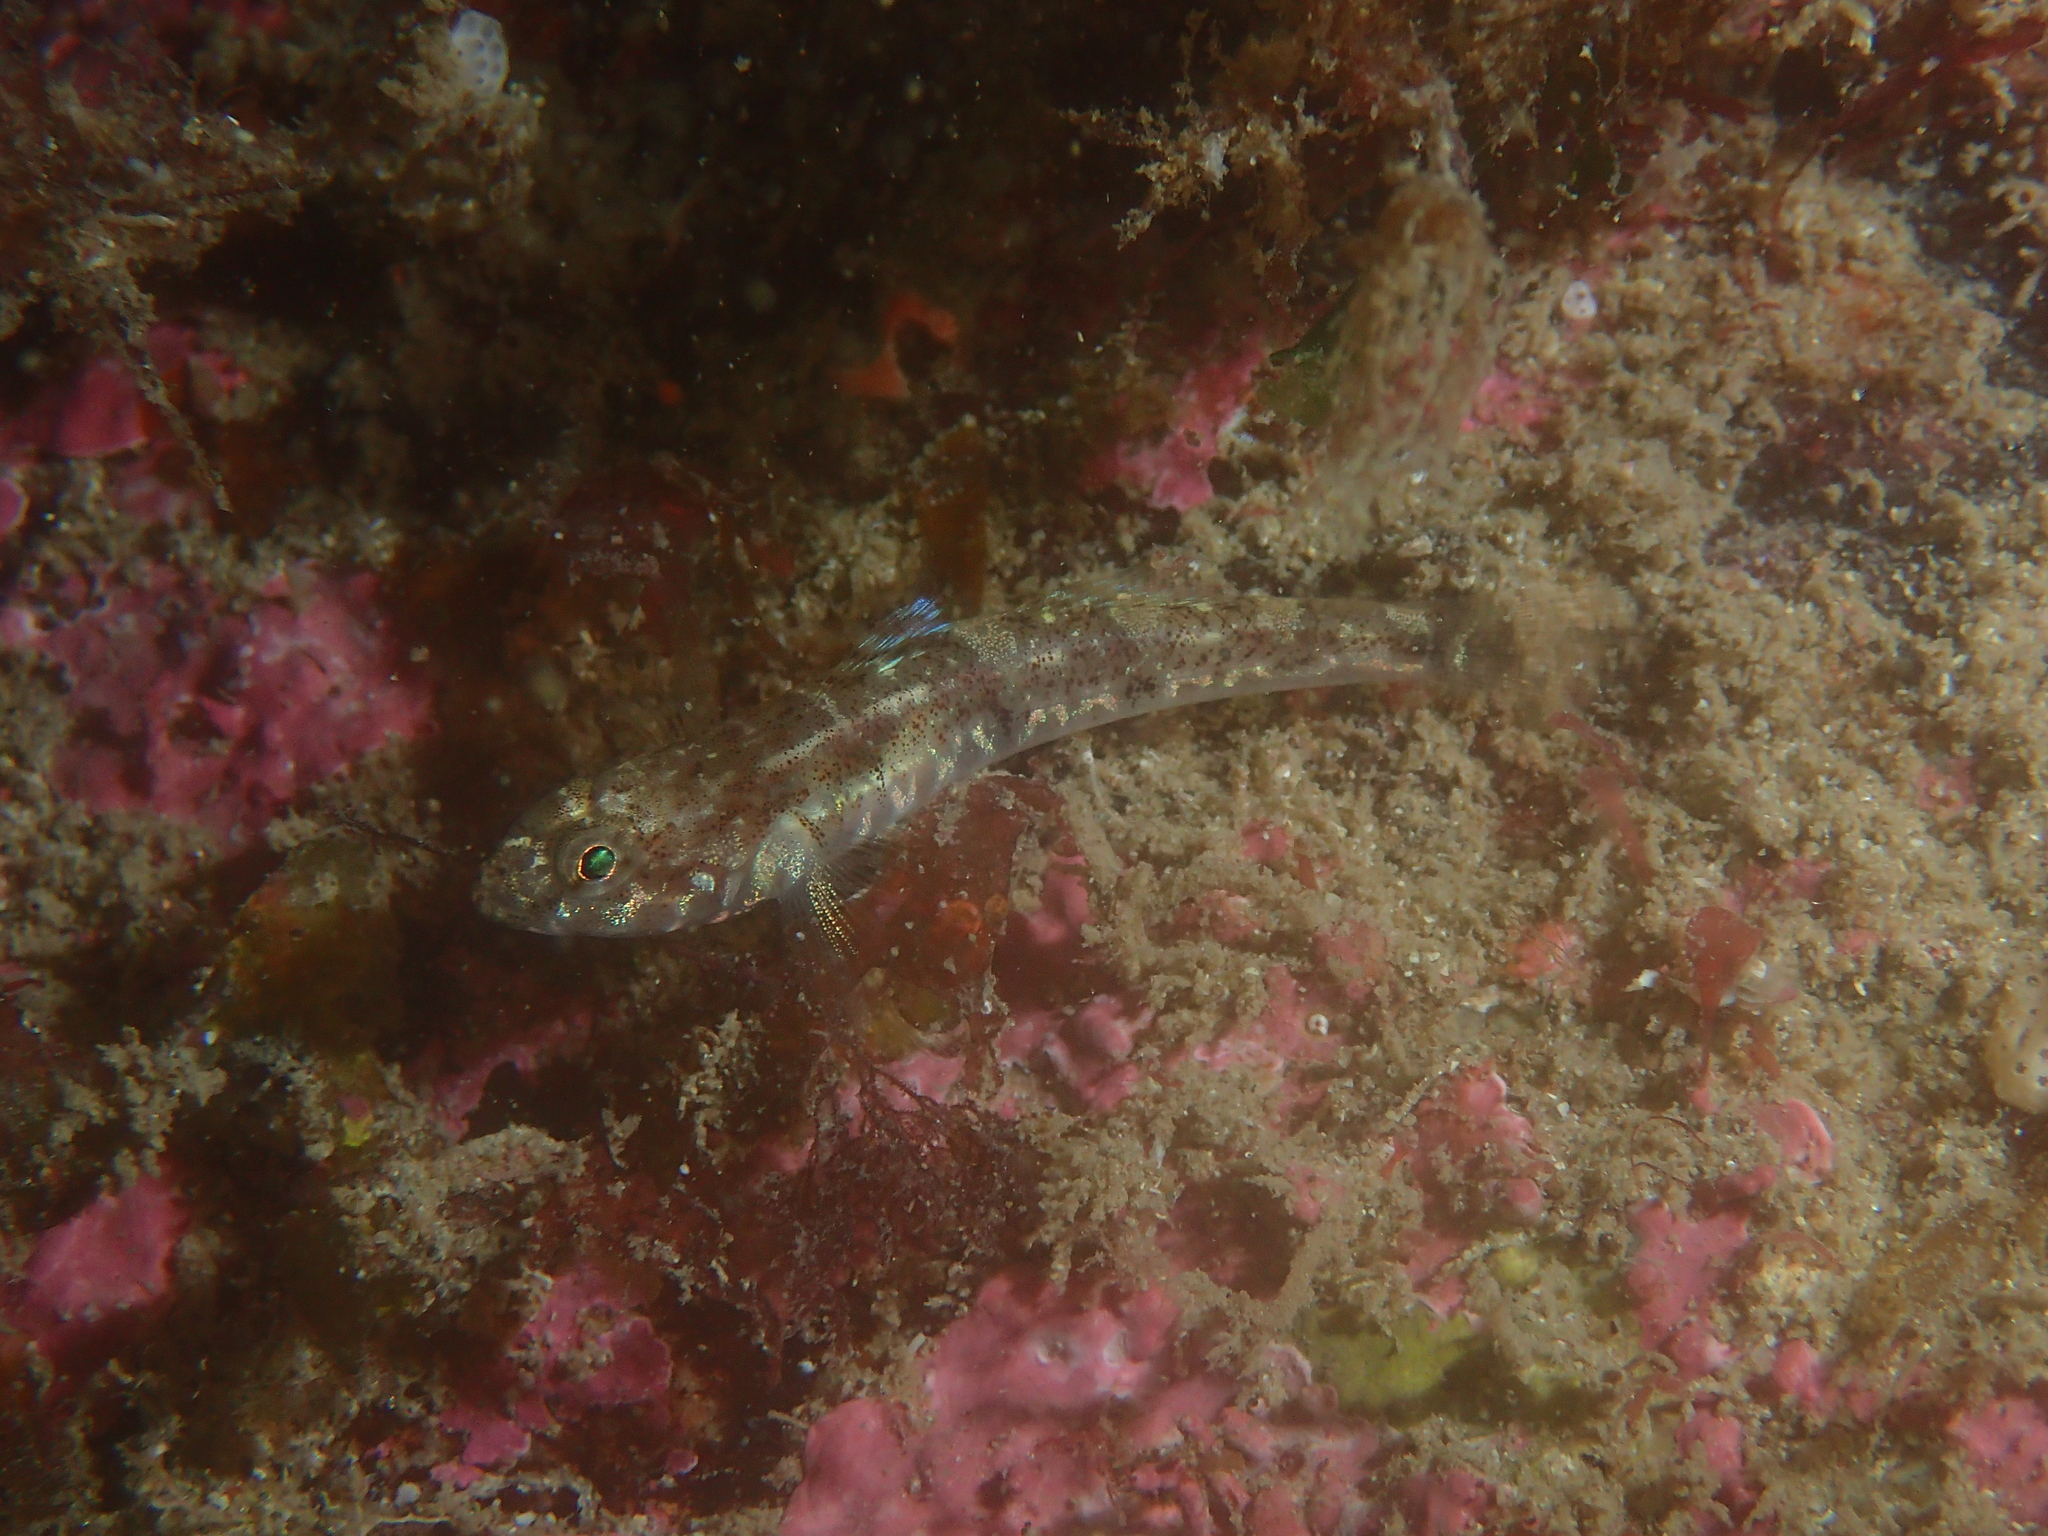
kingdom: Animalia
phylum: Chordata
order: Perciformes
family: Gobiidae
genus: Pomatoschistus
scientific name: Pomatoschistus pictus
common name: Painted goby
